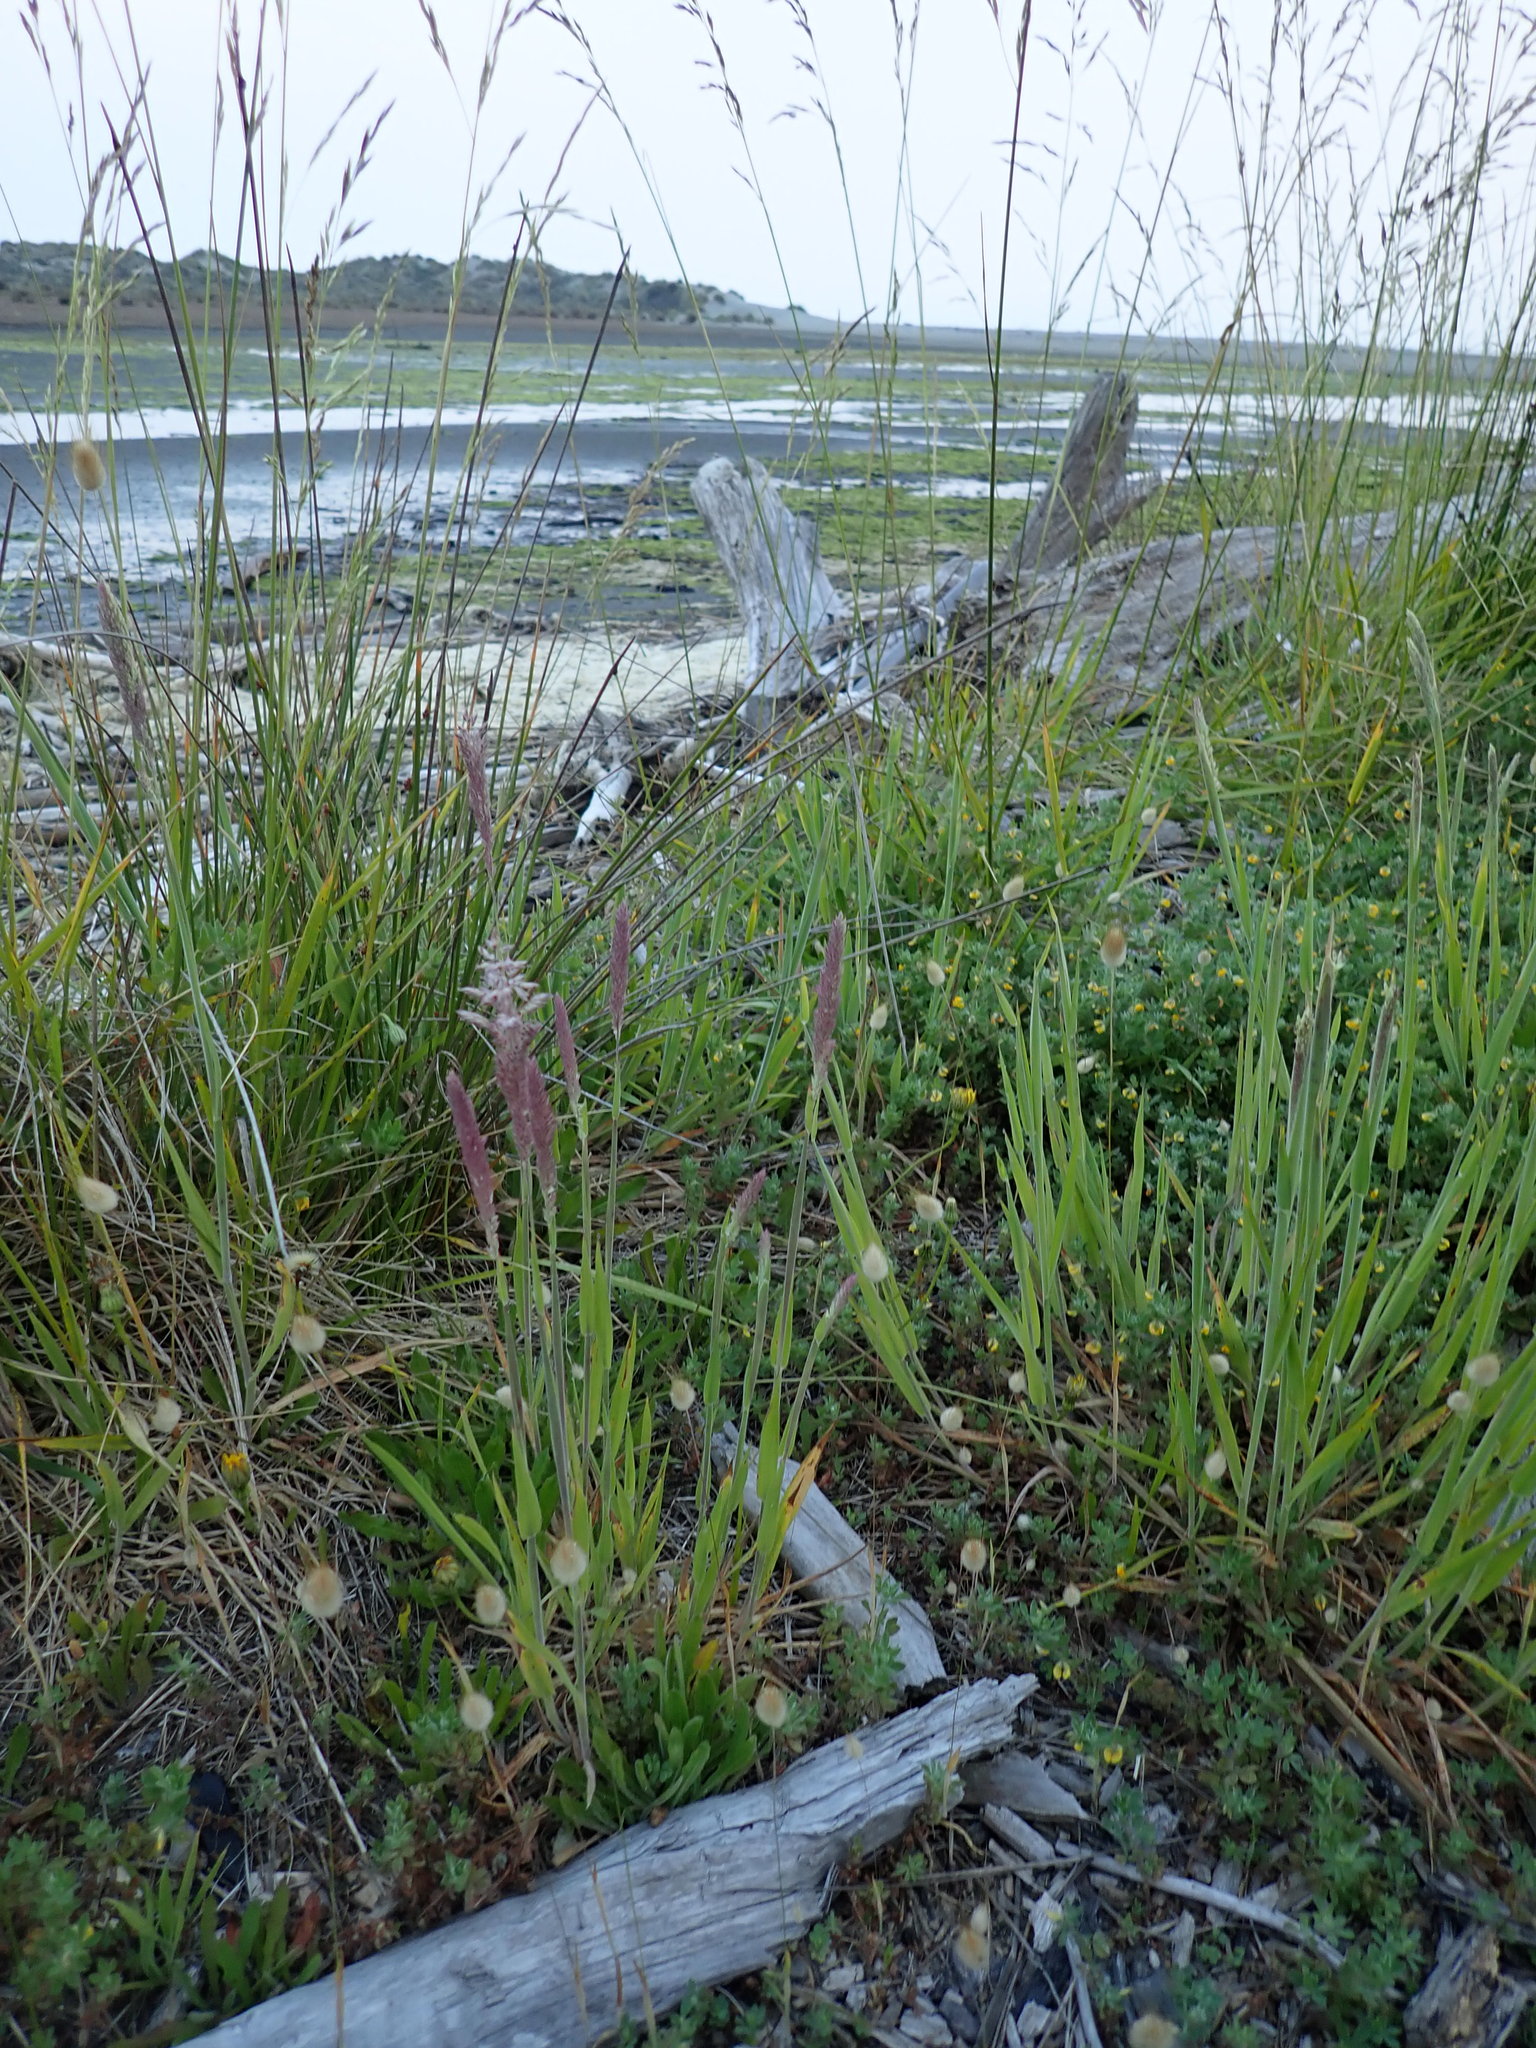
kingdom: Plantae
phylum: Tracheophyta
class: Liliopsida
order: Poales
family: Poaceae
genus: Holcus
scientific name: Holcus lanatus
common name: Yorkshire-fog
